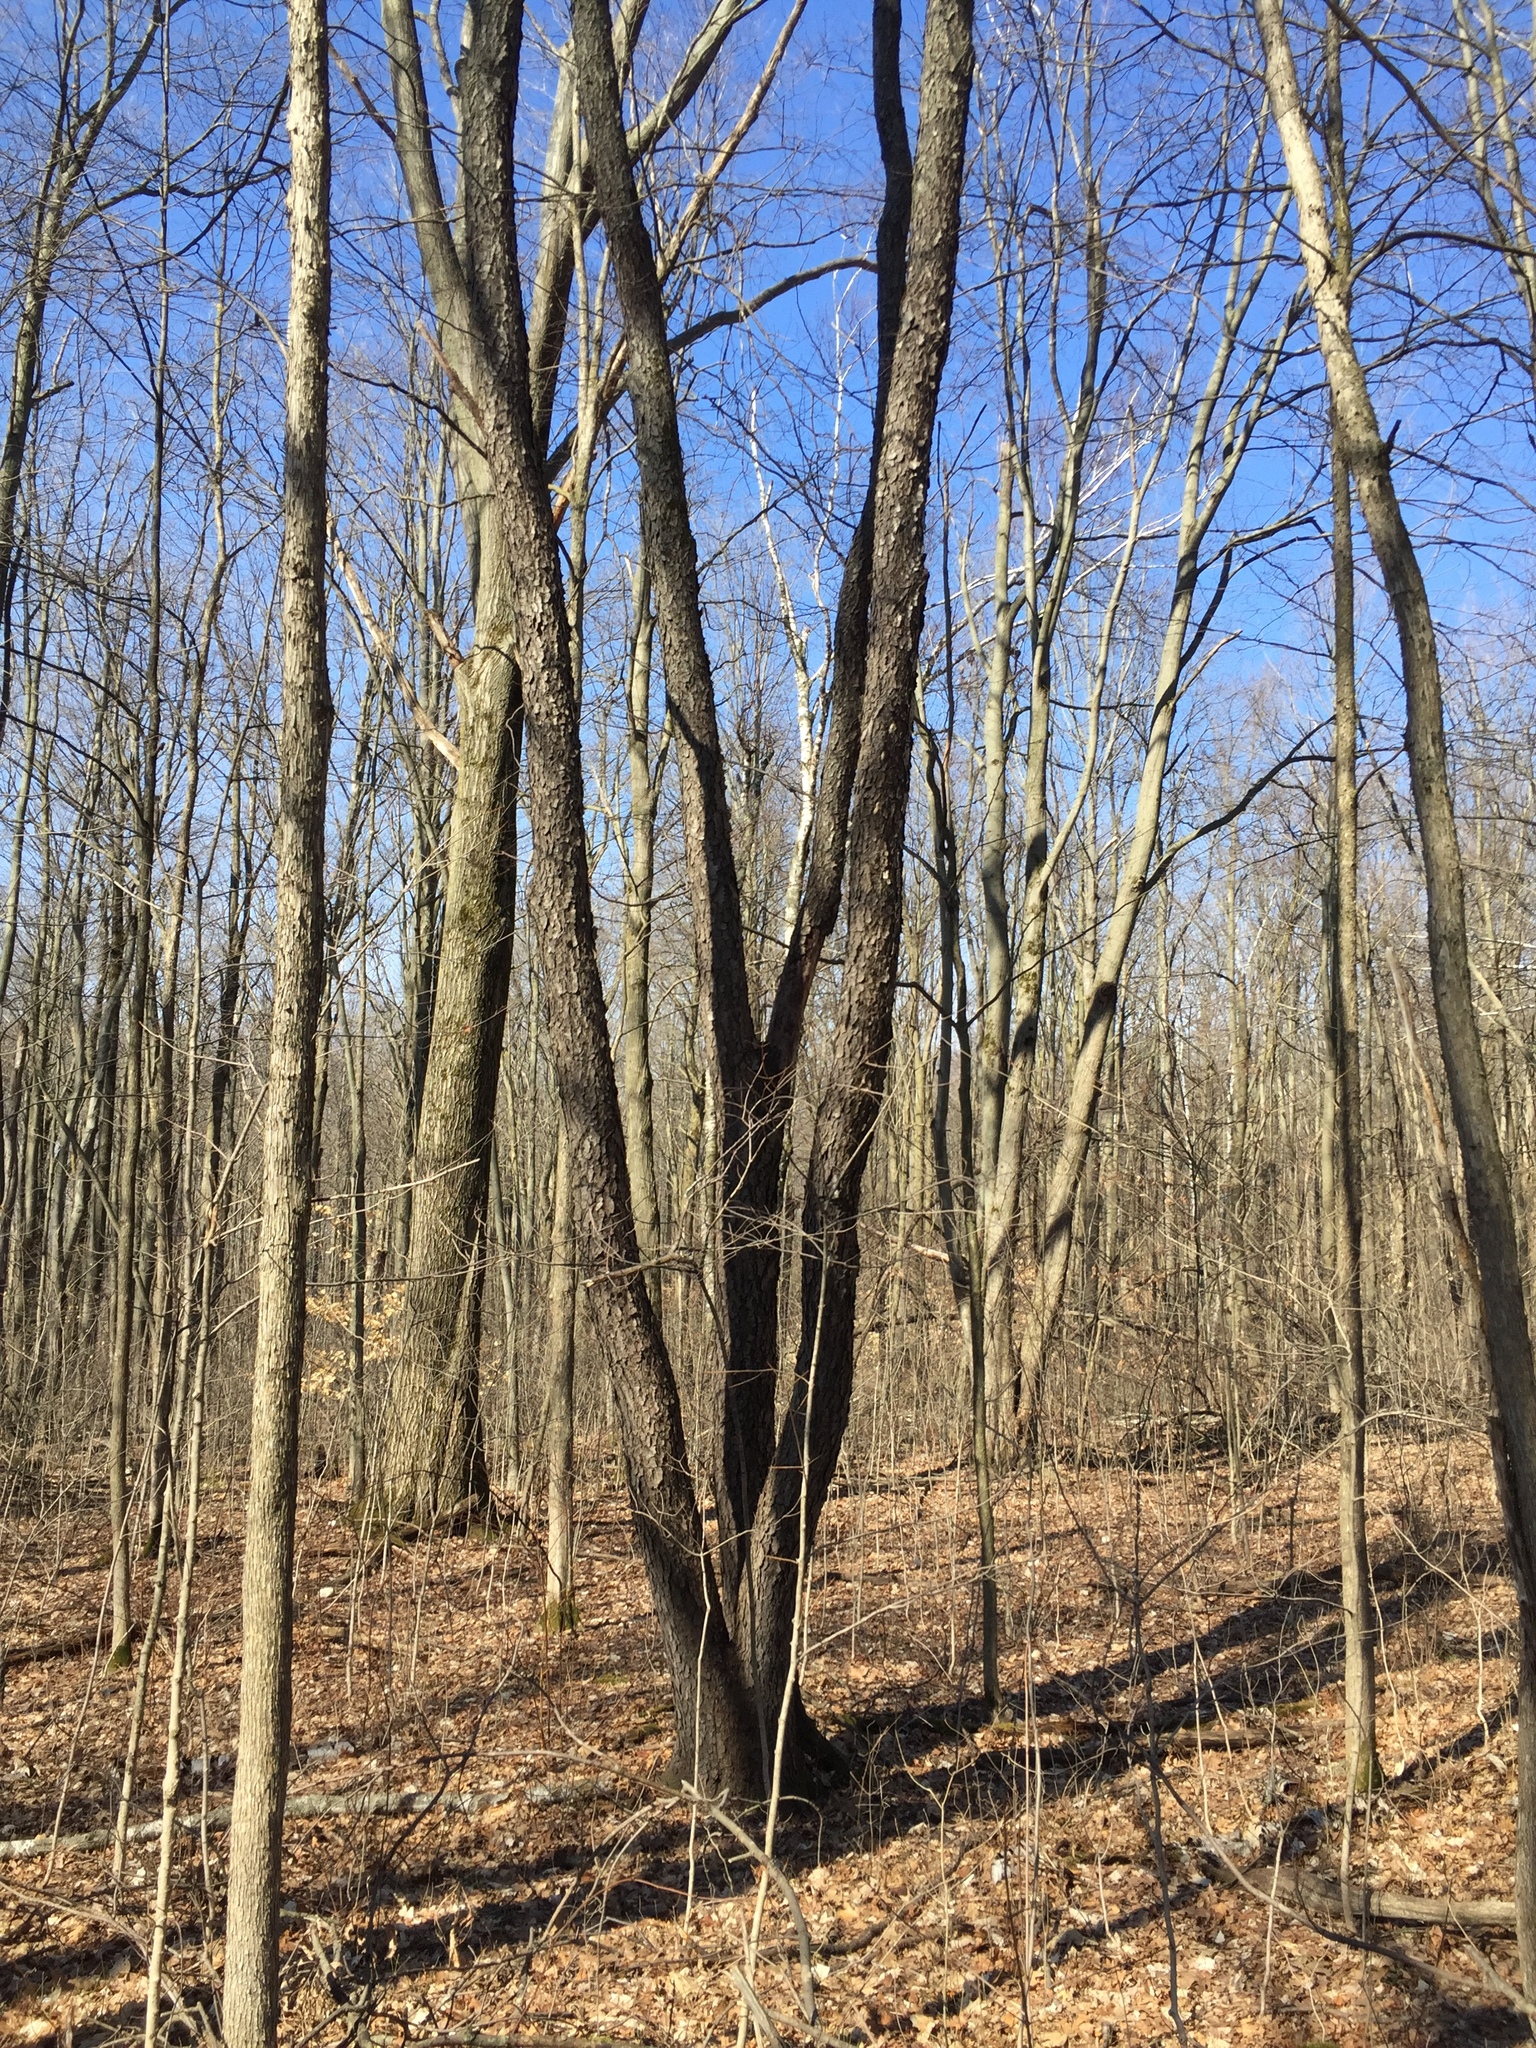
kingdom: Plantae
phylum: Tracheophyta
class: Magnoliopsida
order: Rosales
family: Rosaceae
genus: Prunus
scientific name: Prunus serotina
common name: Black cherry
